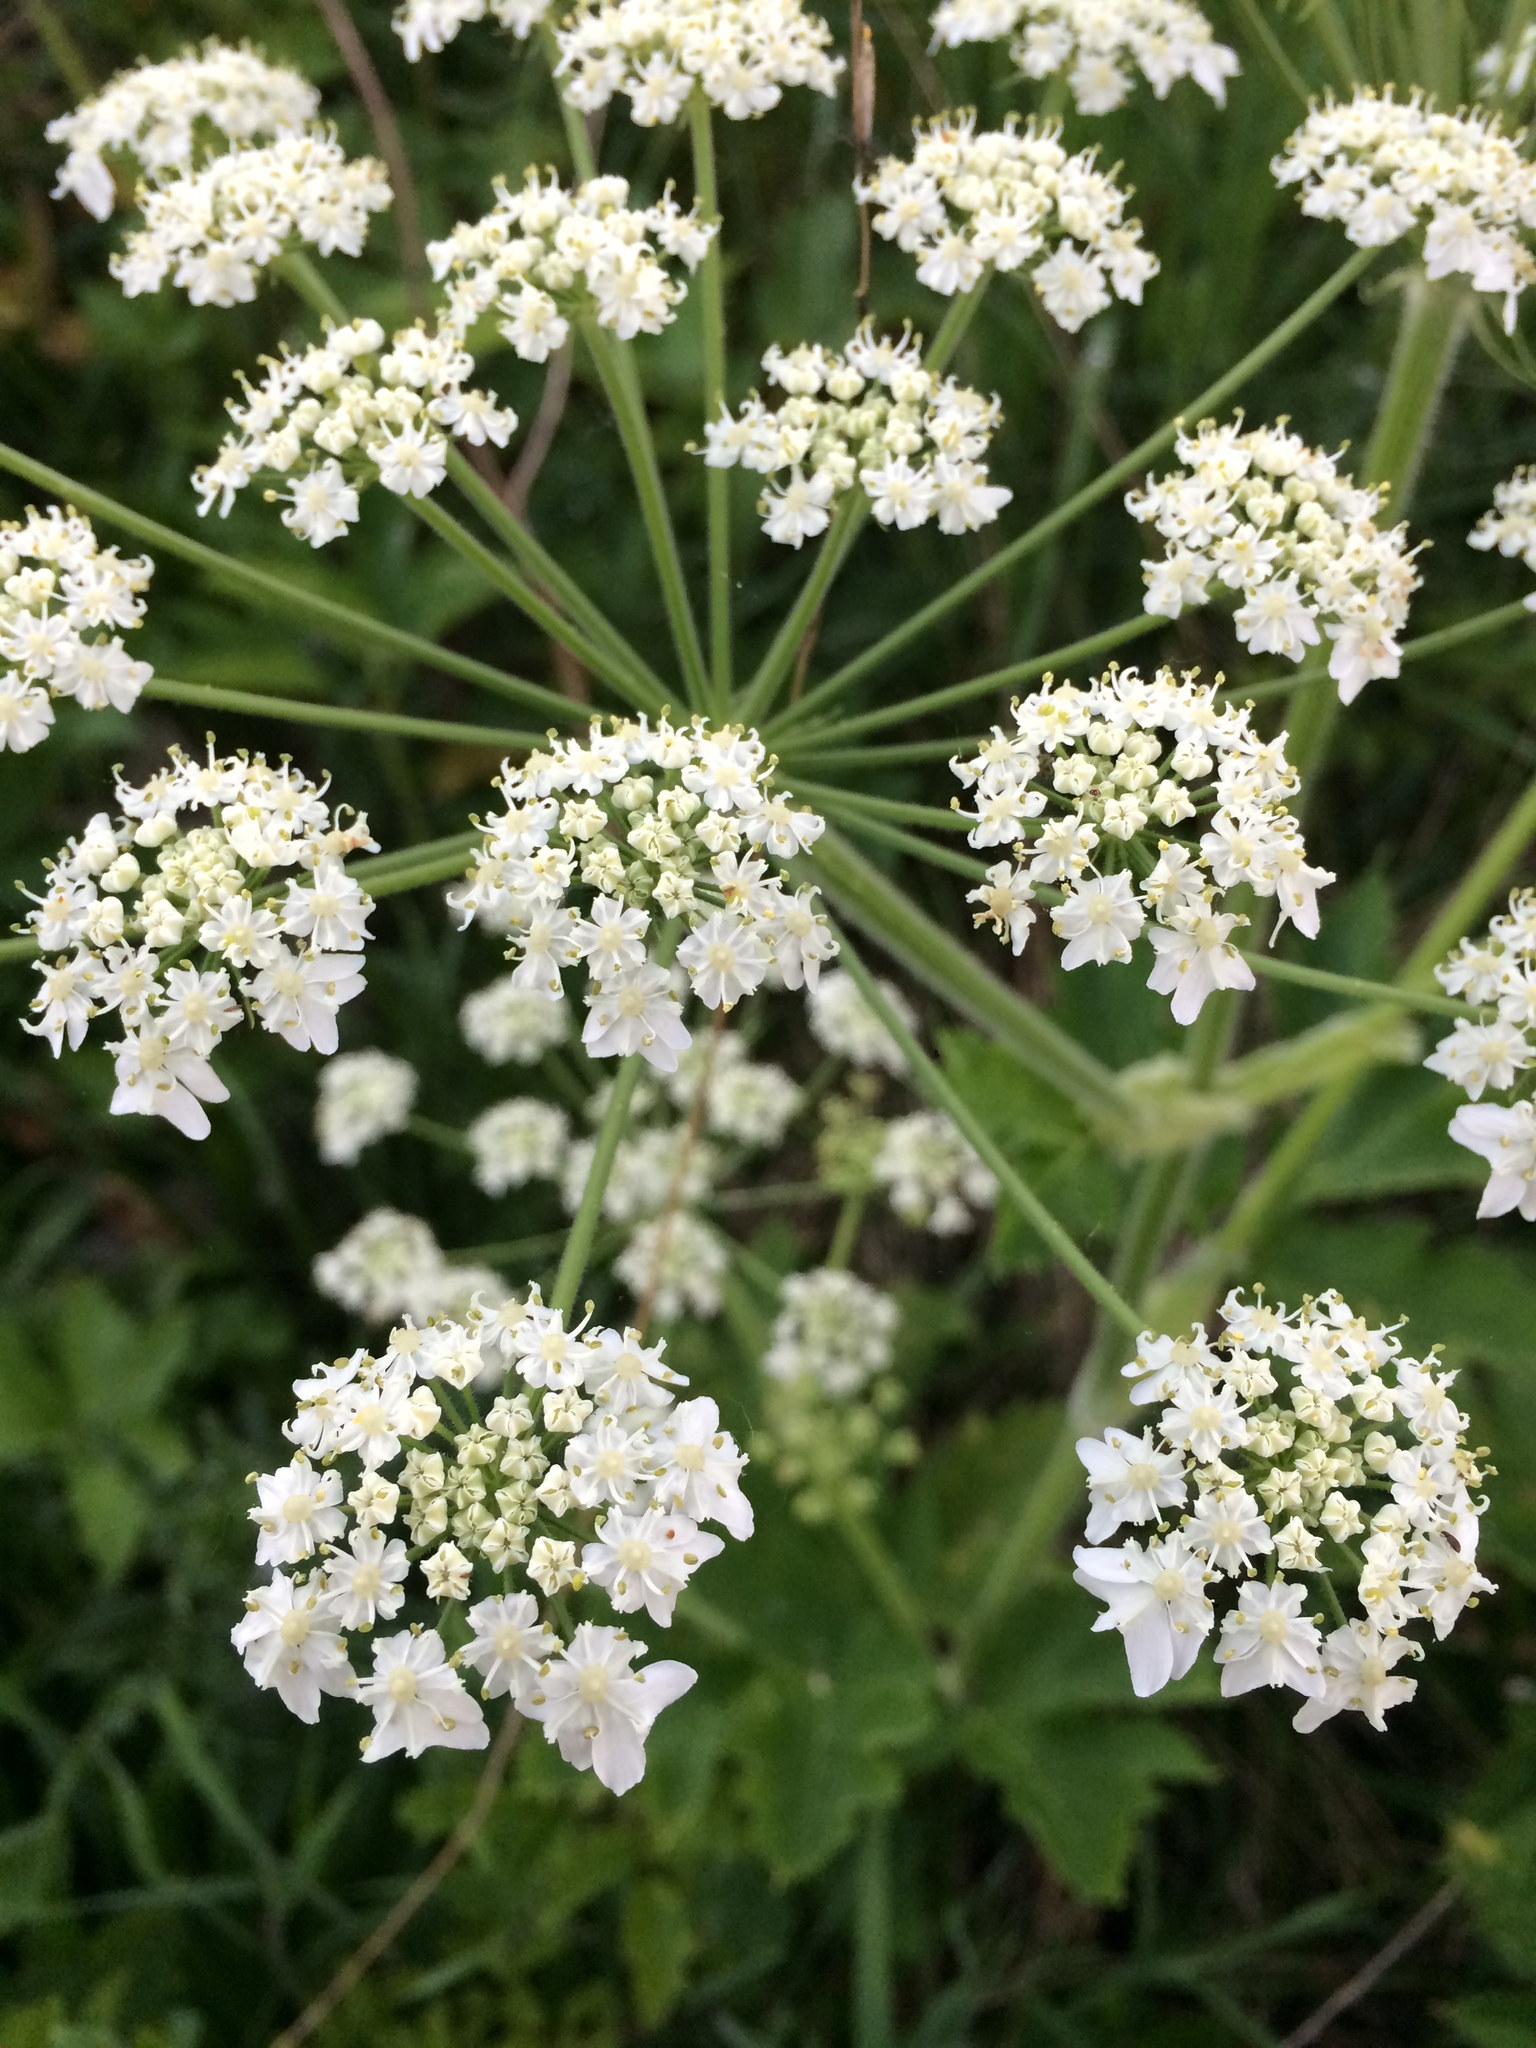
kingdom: Plantae
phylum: Tracheophyta
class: Magnoliopsida
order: Apiales
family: Apiaceae
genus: Heracleum
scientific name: Heracleum maximum
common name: American cow parsnip
